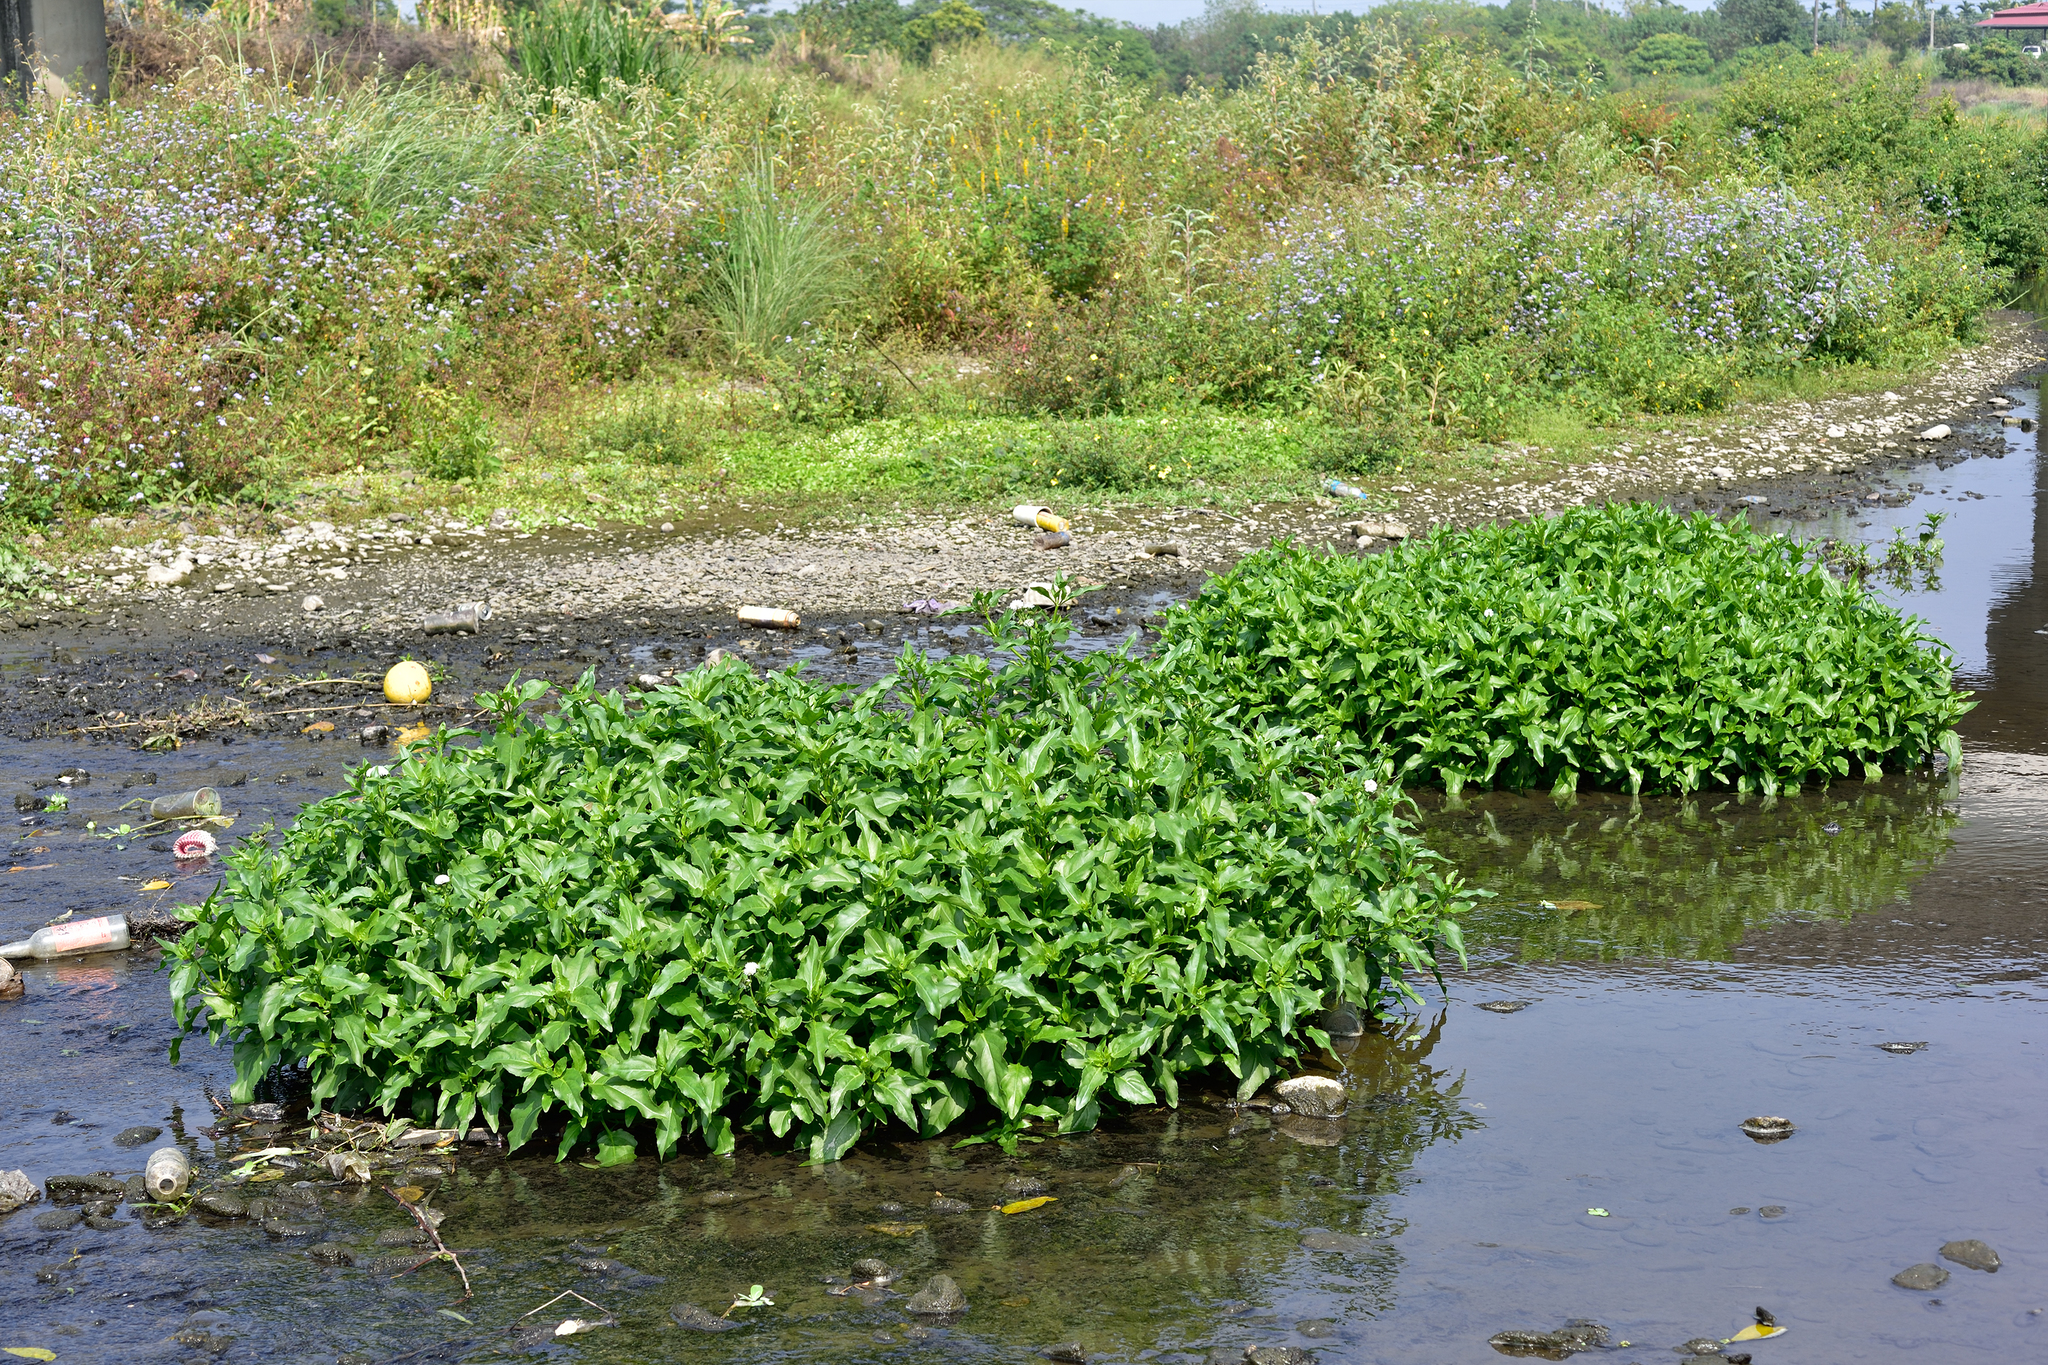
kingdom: Plantae
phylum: Tracheophyta
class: Magnoliopsida
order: Asterales
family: Asteraceae
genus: Gymnocoronis
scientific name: Gymnocoronis spilanthoides
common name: Senegal teaplant
